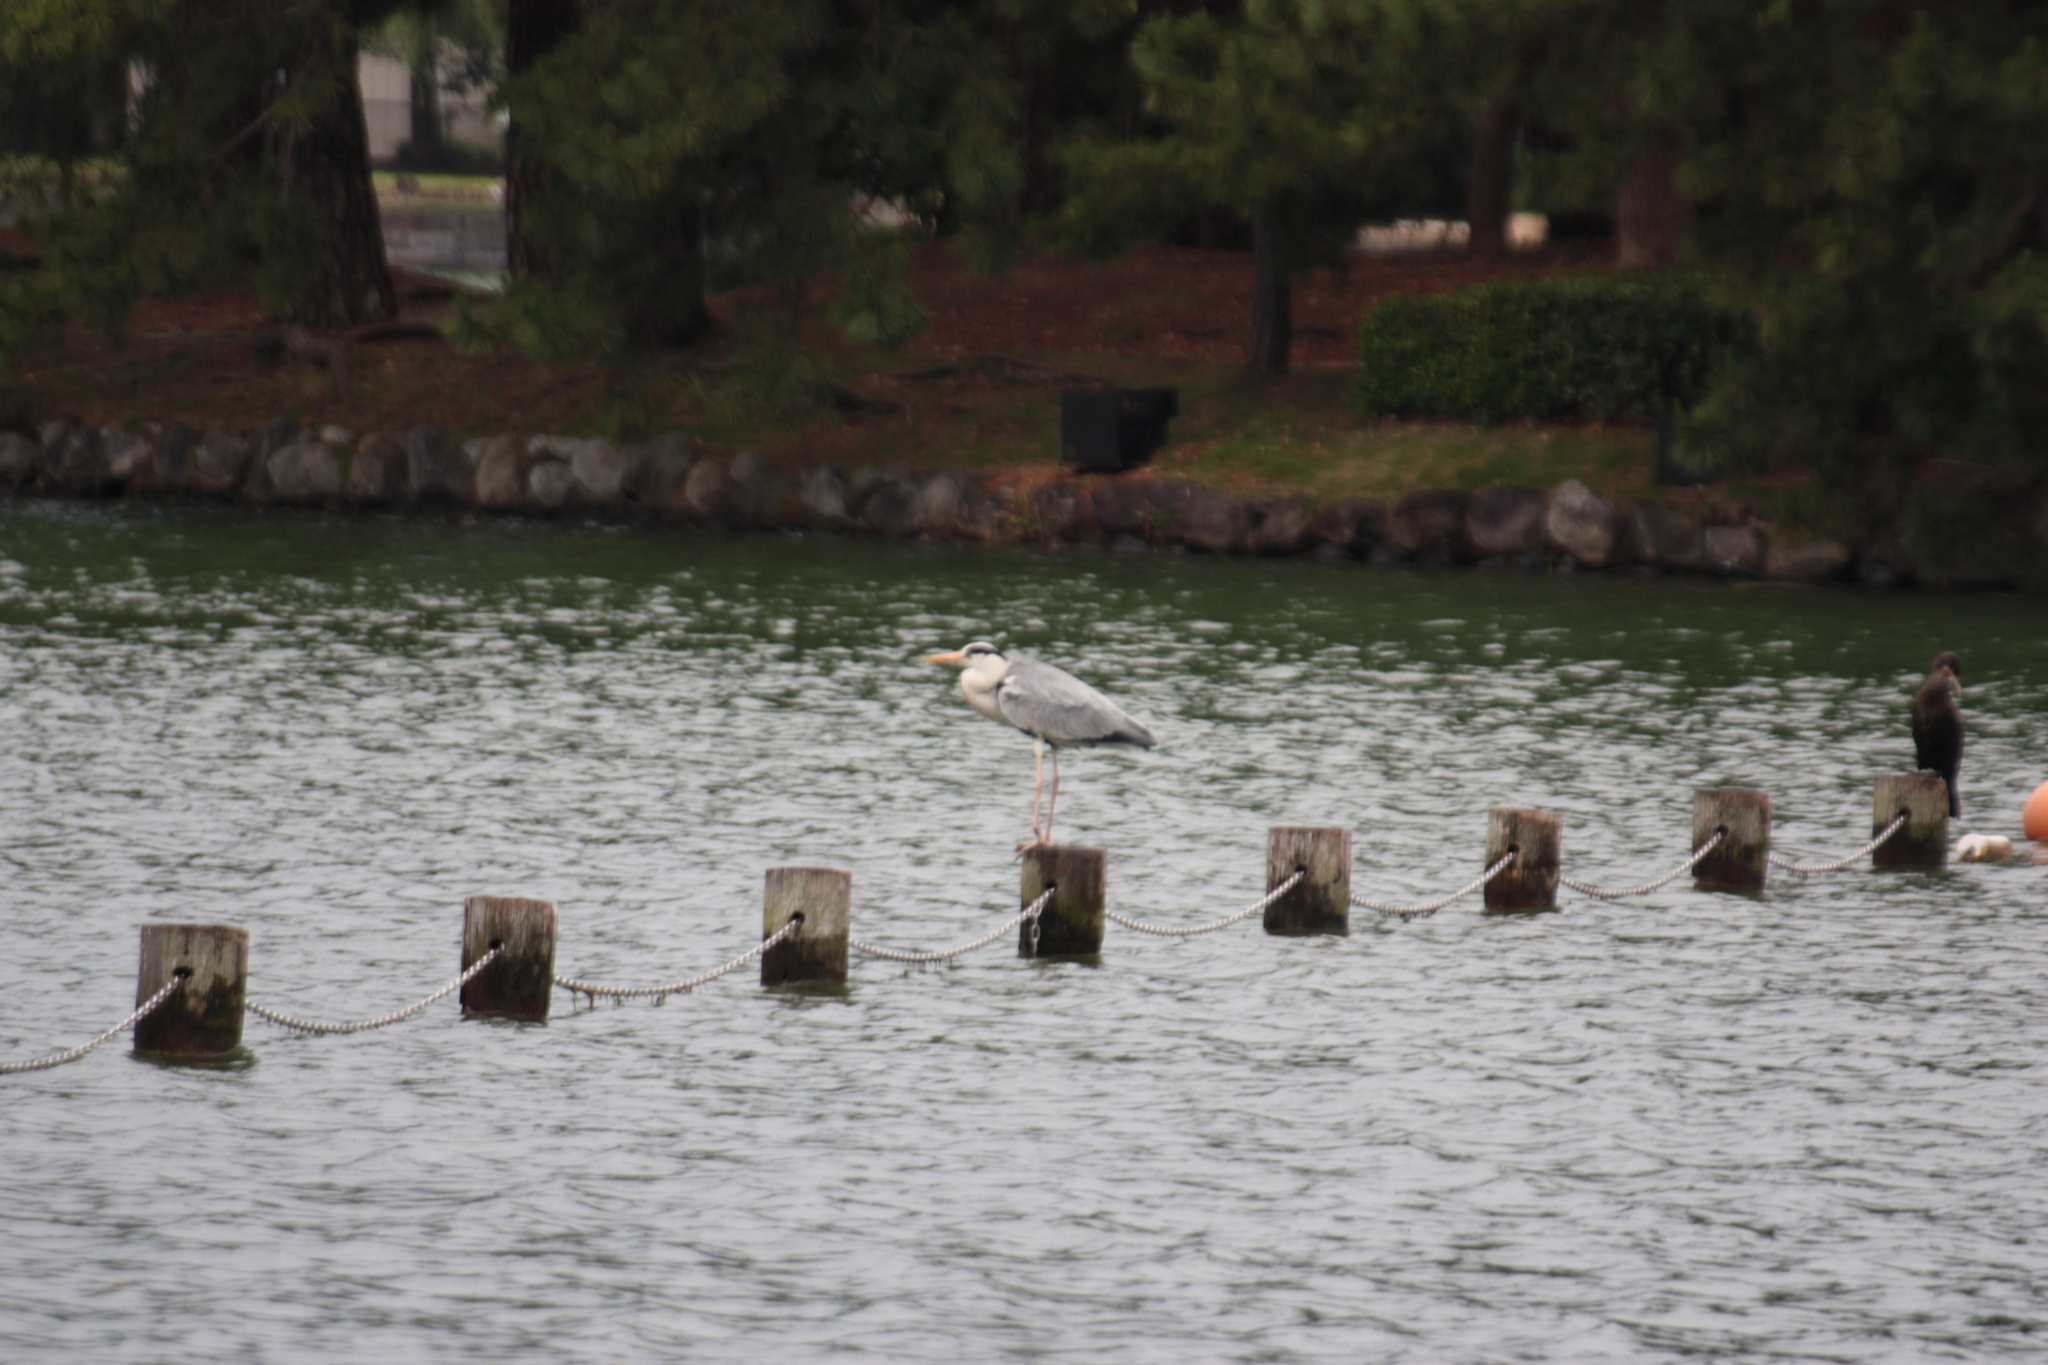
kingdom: Animalia
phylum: Chordata
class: Aves
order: Pelecaniformes
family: Ardeidae
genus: Ardea
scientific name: Ardea cinerea
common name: Grey heron
